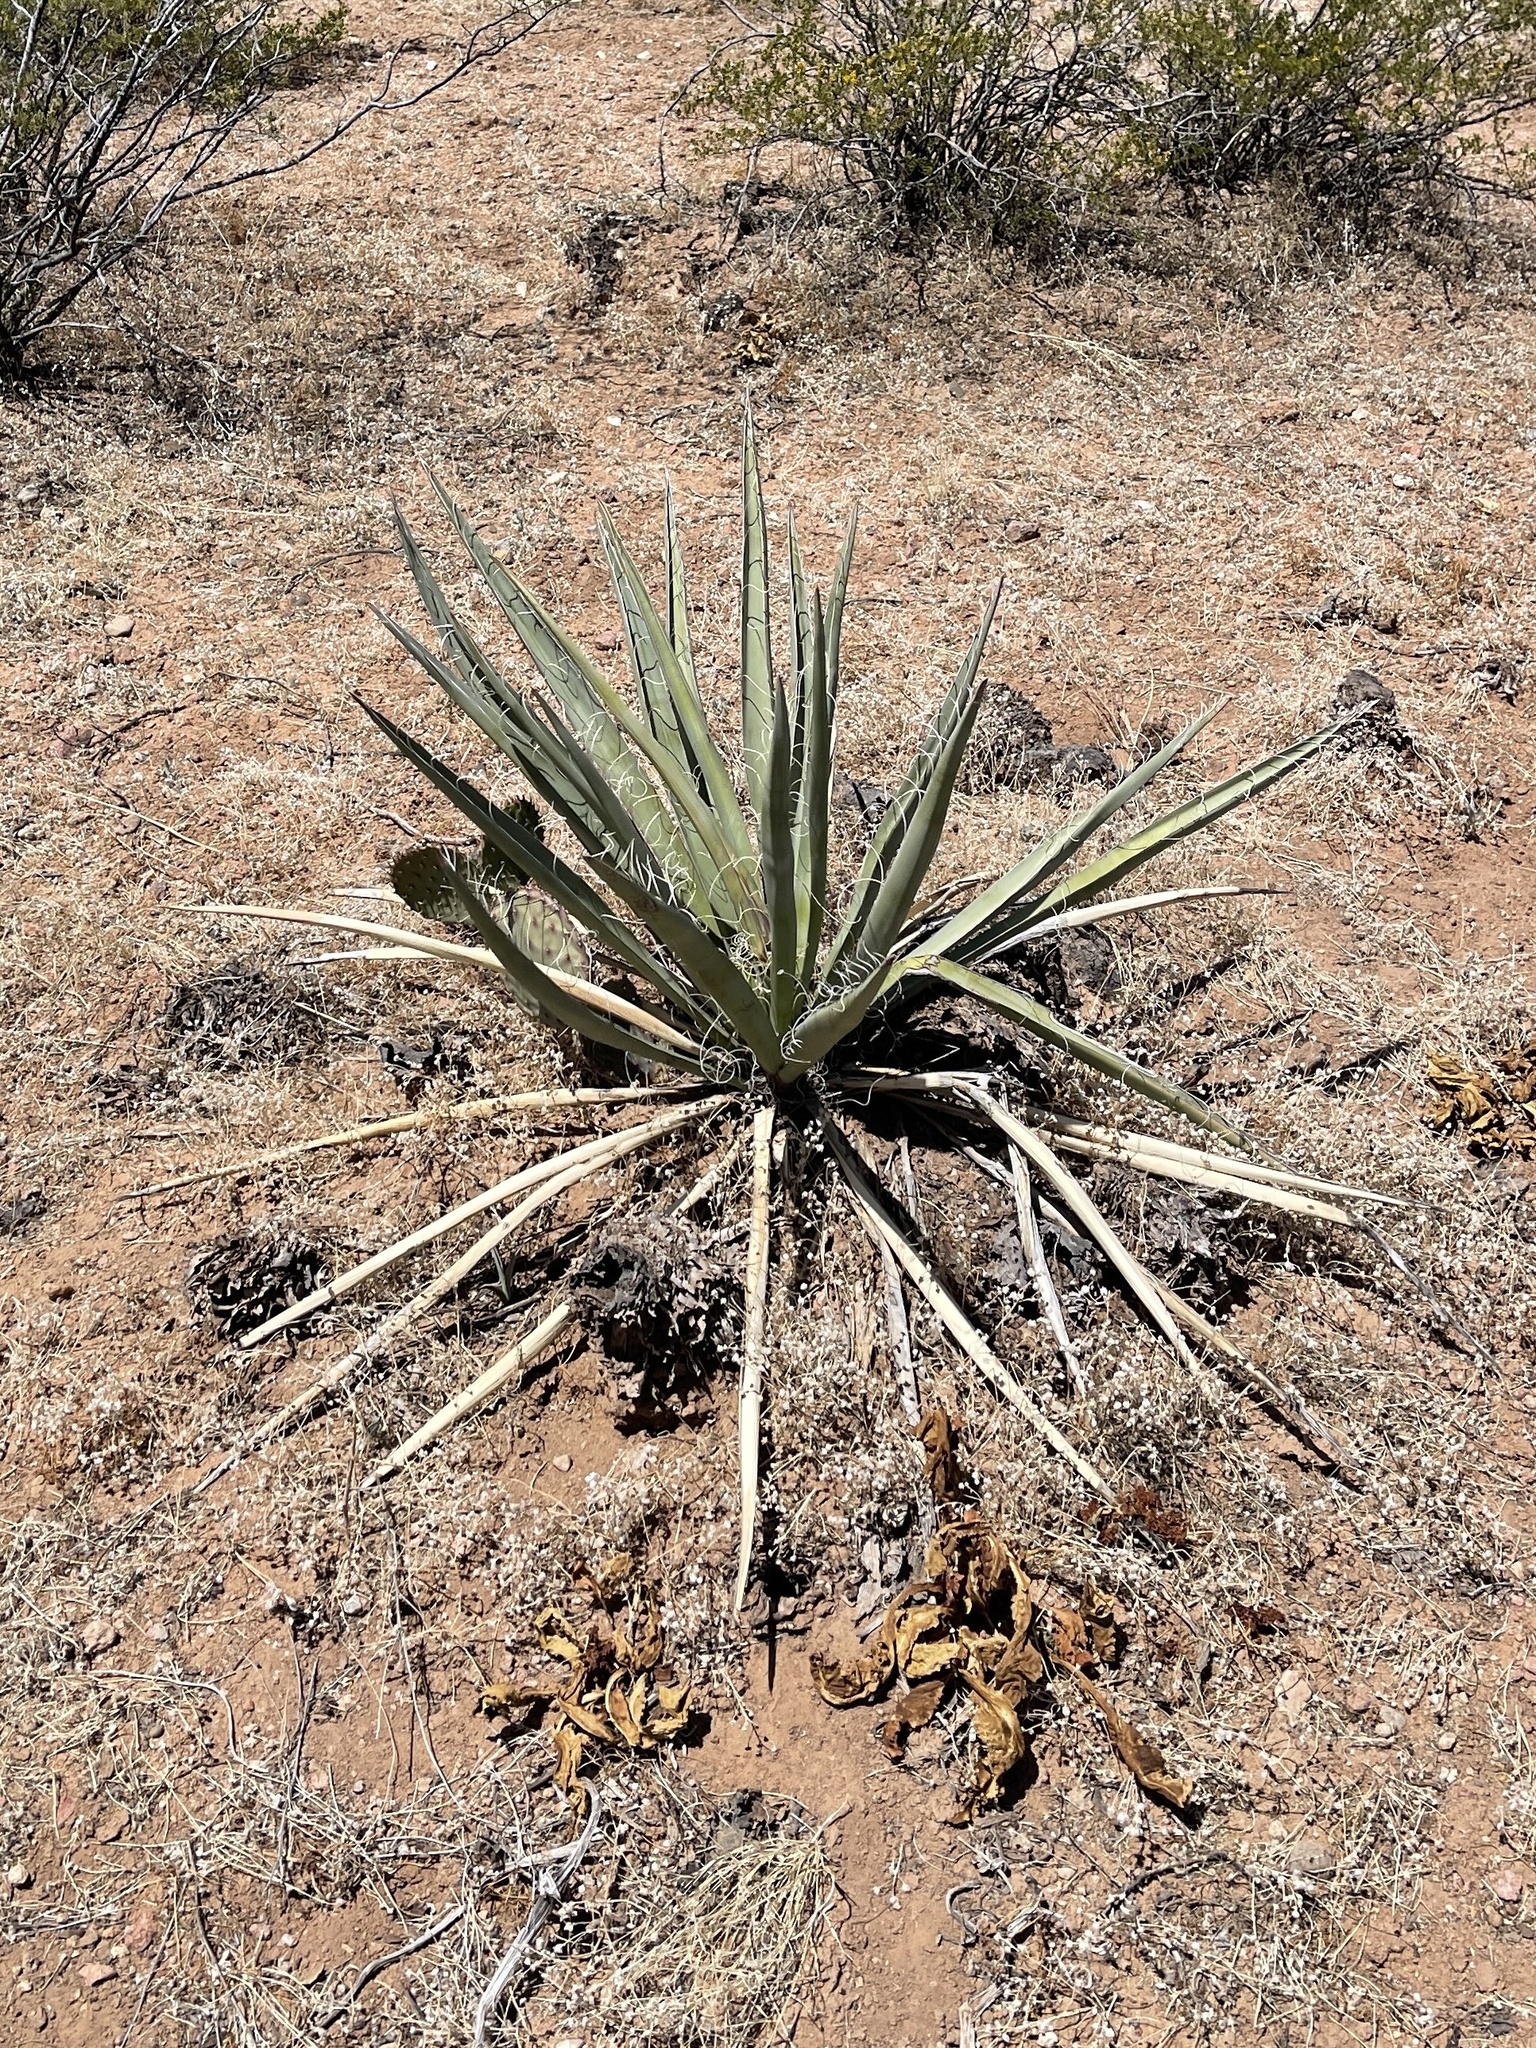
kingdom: Plantae
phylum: Tracheophyta
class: Liliopsida
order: Asparagales
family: Asparagaceae
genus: Yucca
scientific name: Yucca baccata
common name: Banana yucca
